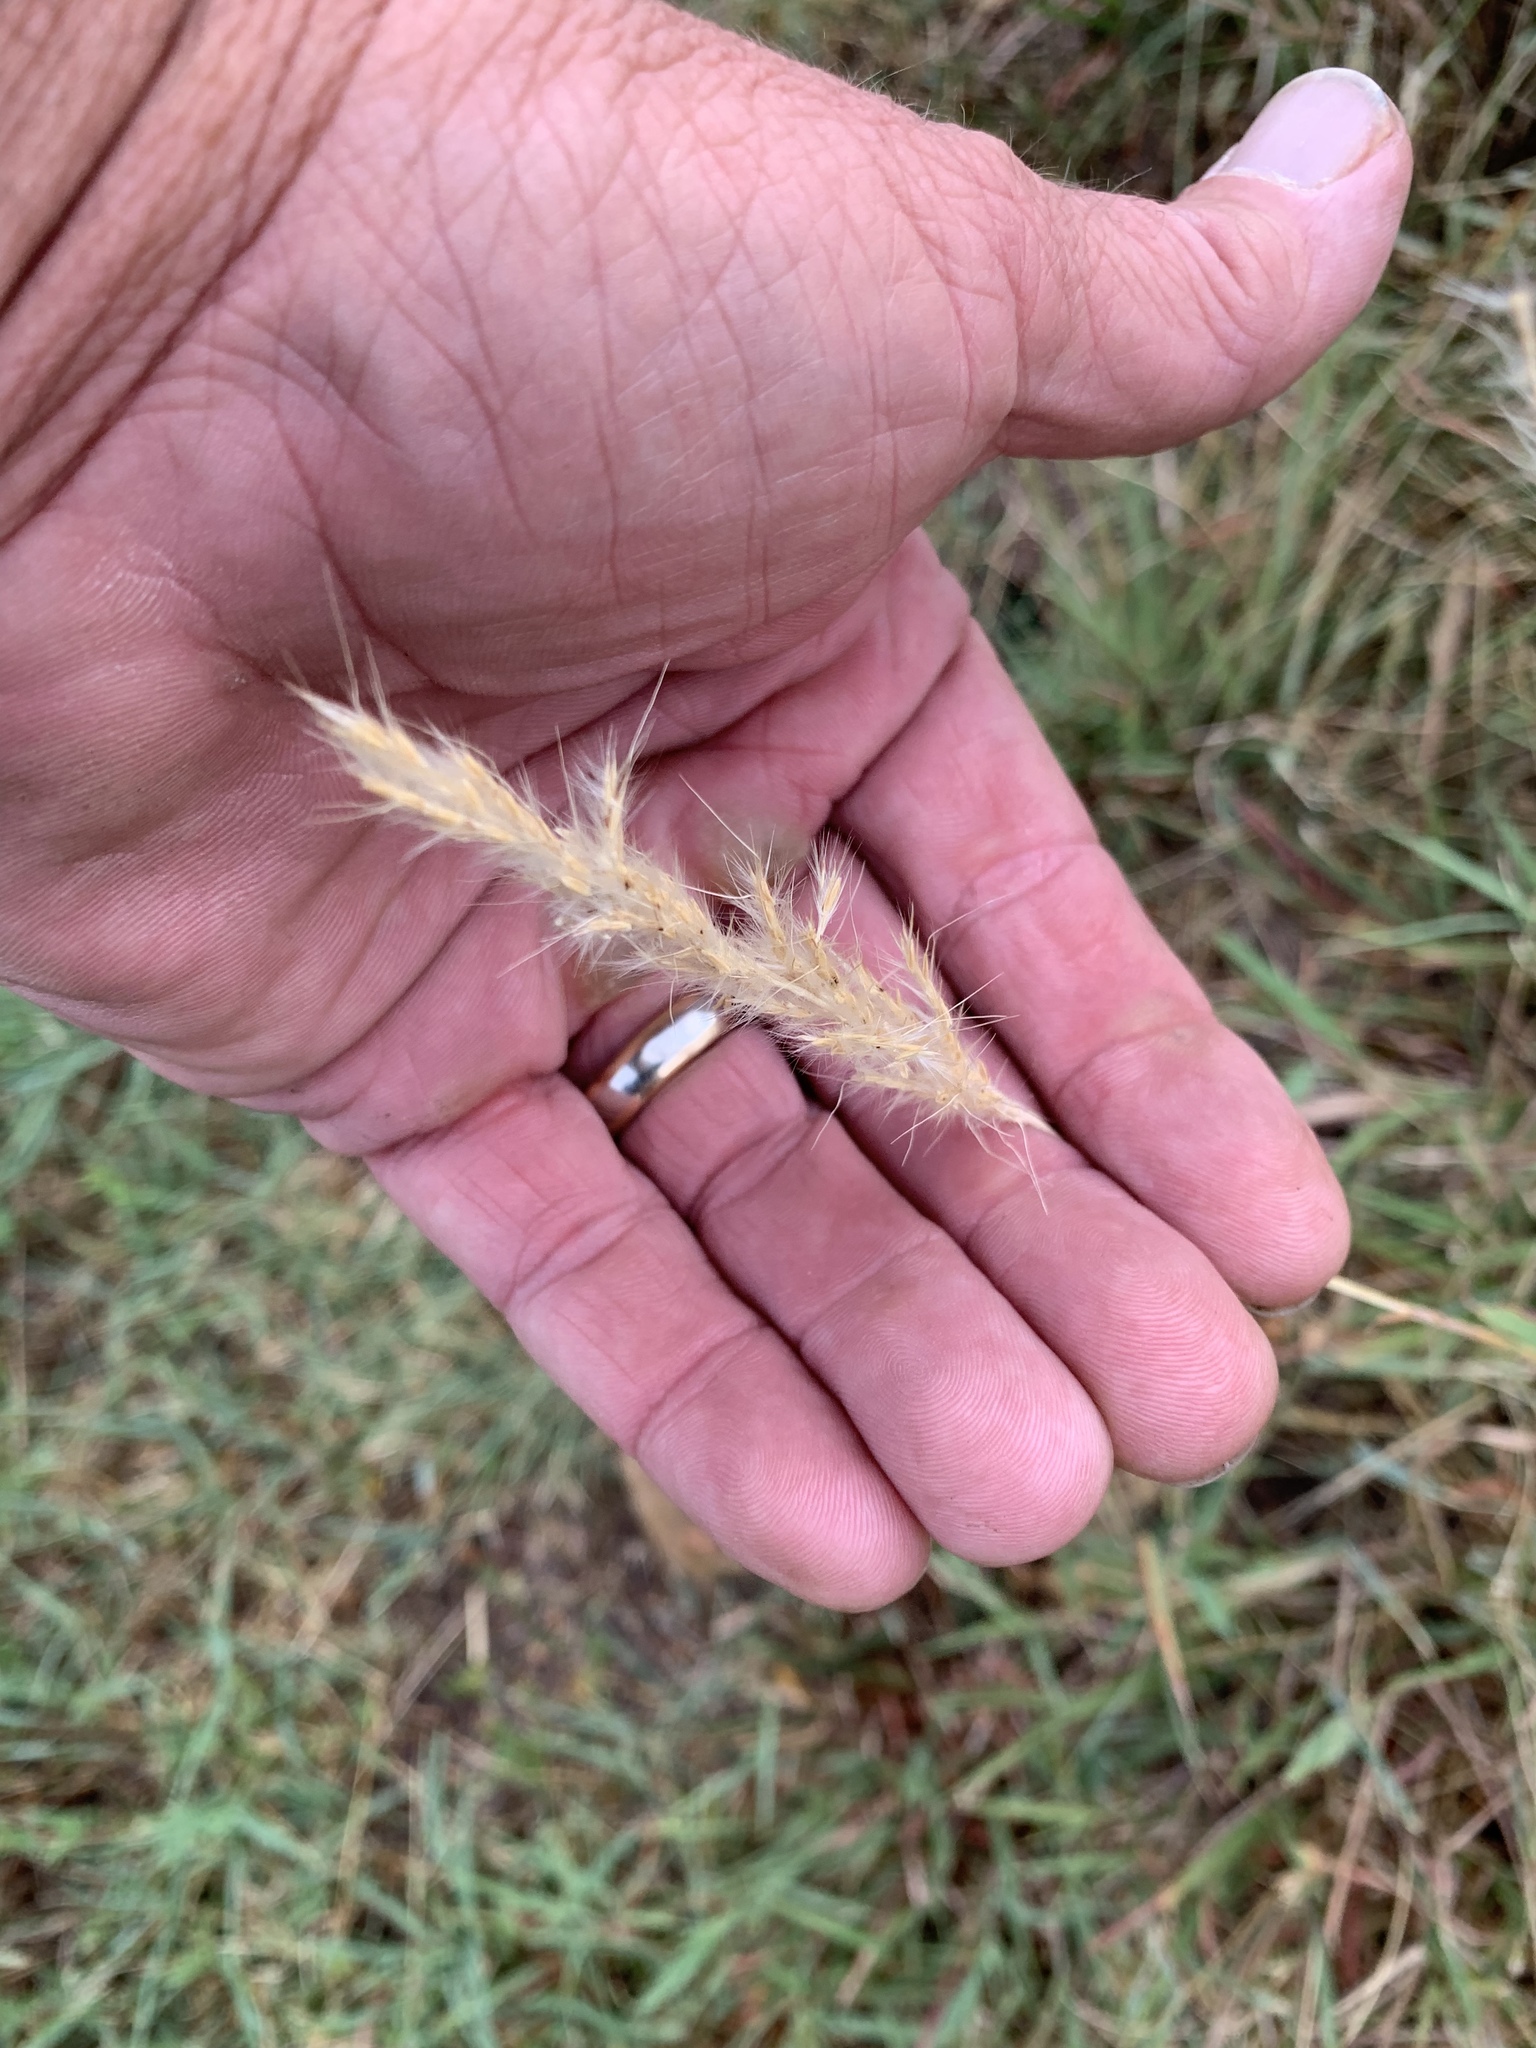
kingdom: Plantae
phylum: Tracheophyta
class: Liliopsida
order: Poales
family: Poaceae
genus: Bothriochloa
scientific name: Bothriochloa torreyana
